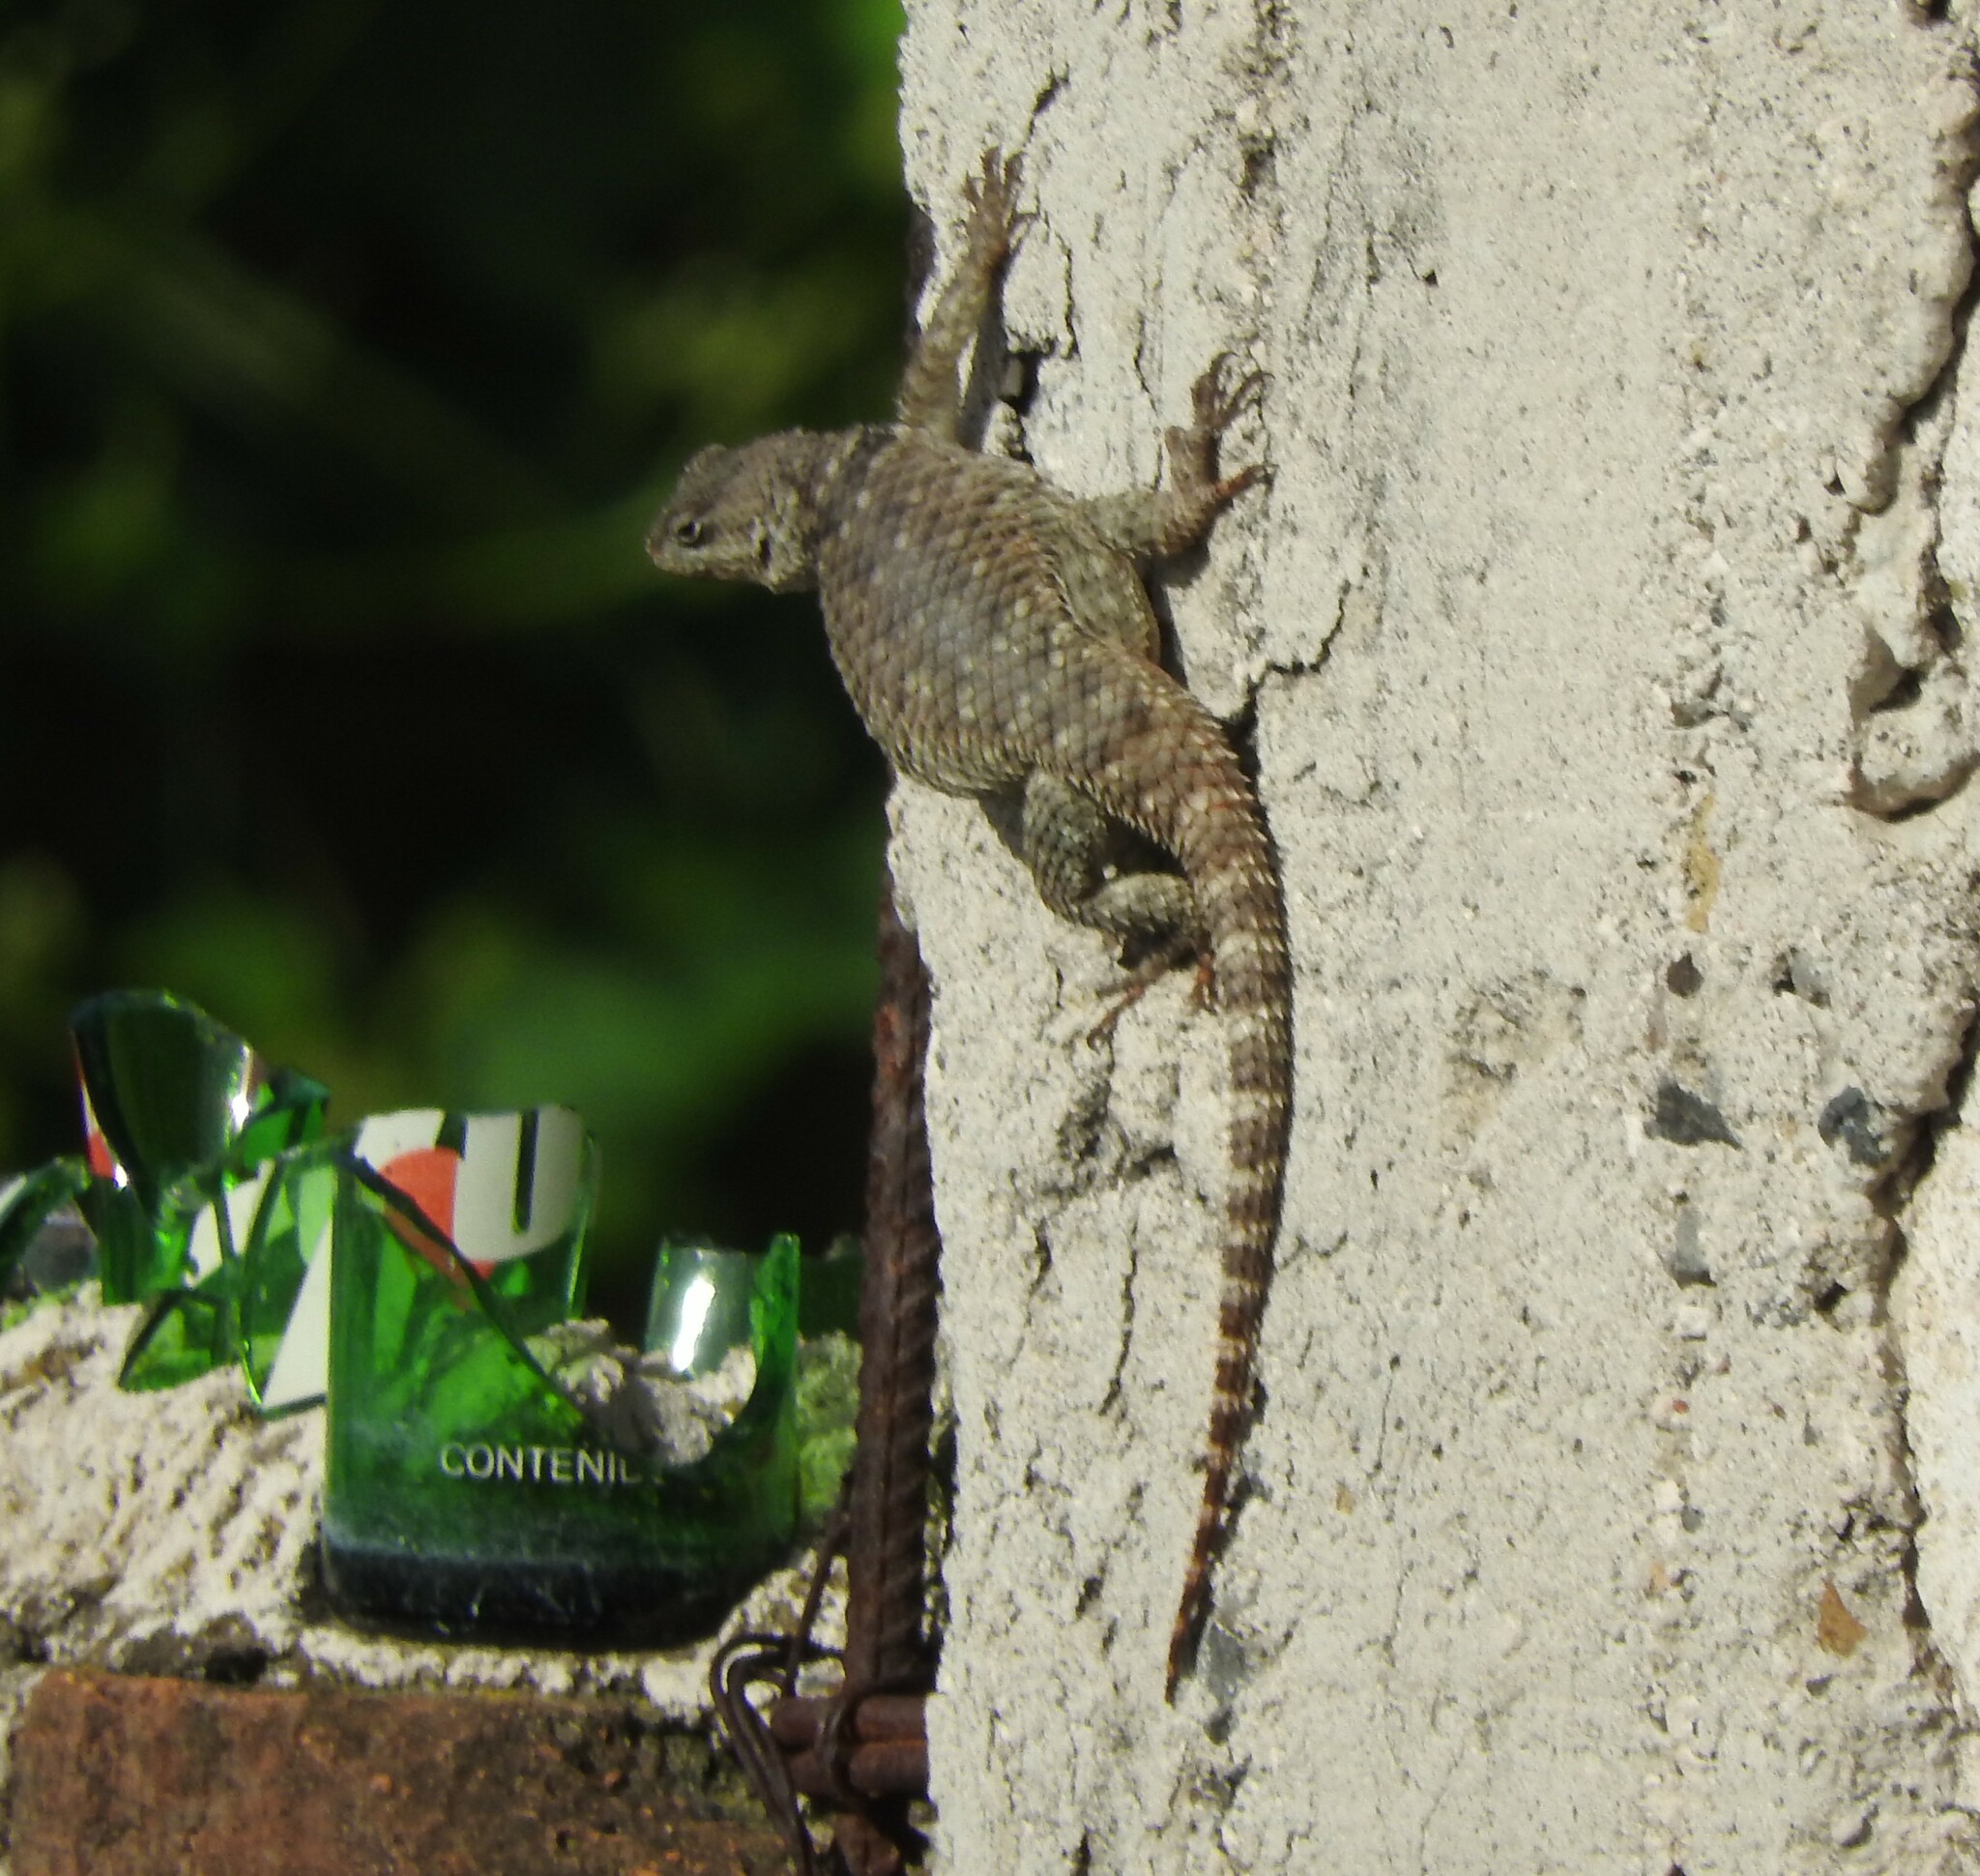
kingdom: Animalia
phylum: Chordata
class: Squamata
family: Phrynosomatidae
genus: Sceloporus
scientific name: Sceloporus torquatus
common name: Central plateau torquate lizard [melanogaster]
